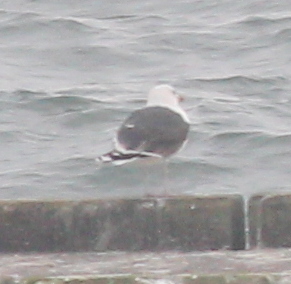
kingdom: Animalia
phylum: Chordata
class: Aves
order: Charadriiformes
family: Laridae
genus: Larus
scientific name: Larus marinus
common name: Great black-backed gull
